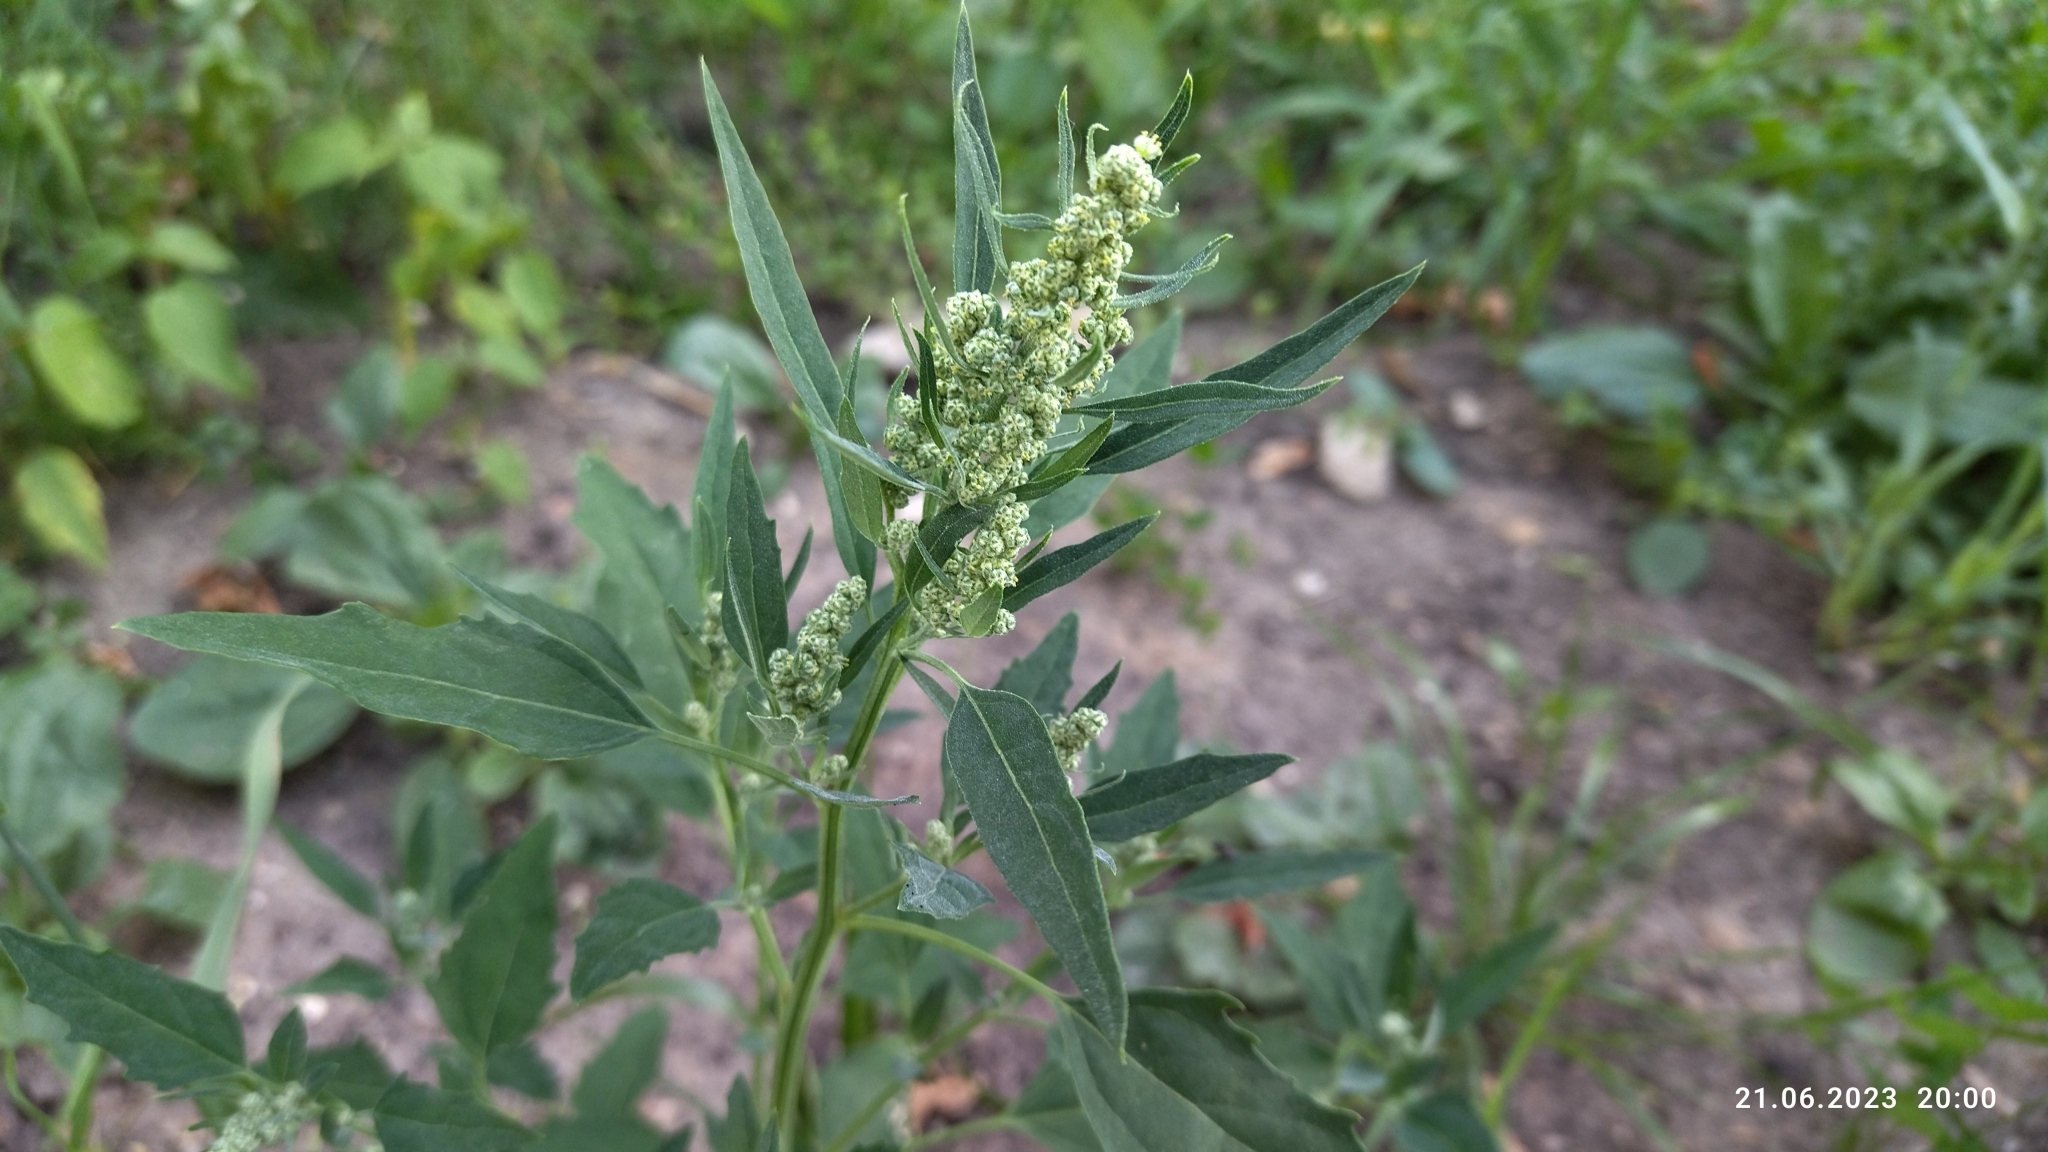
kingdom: Plantae
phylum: Tracheophyta
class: Magnoliopsida
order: Caryophyllales
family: Amaranthaceae
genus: Chenopodium
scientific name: Chenopodium album
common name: Fat-hen
